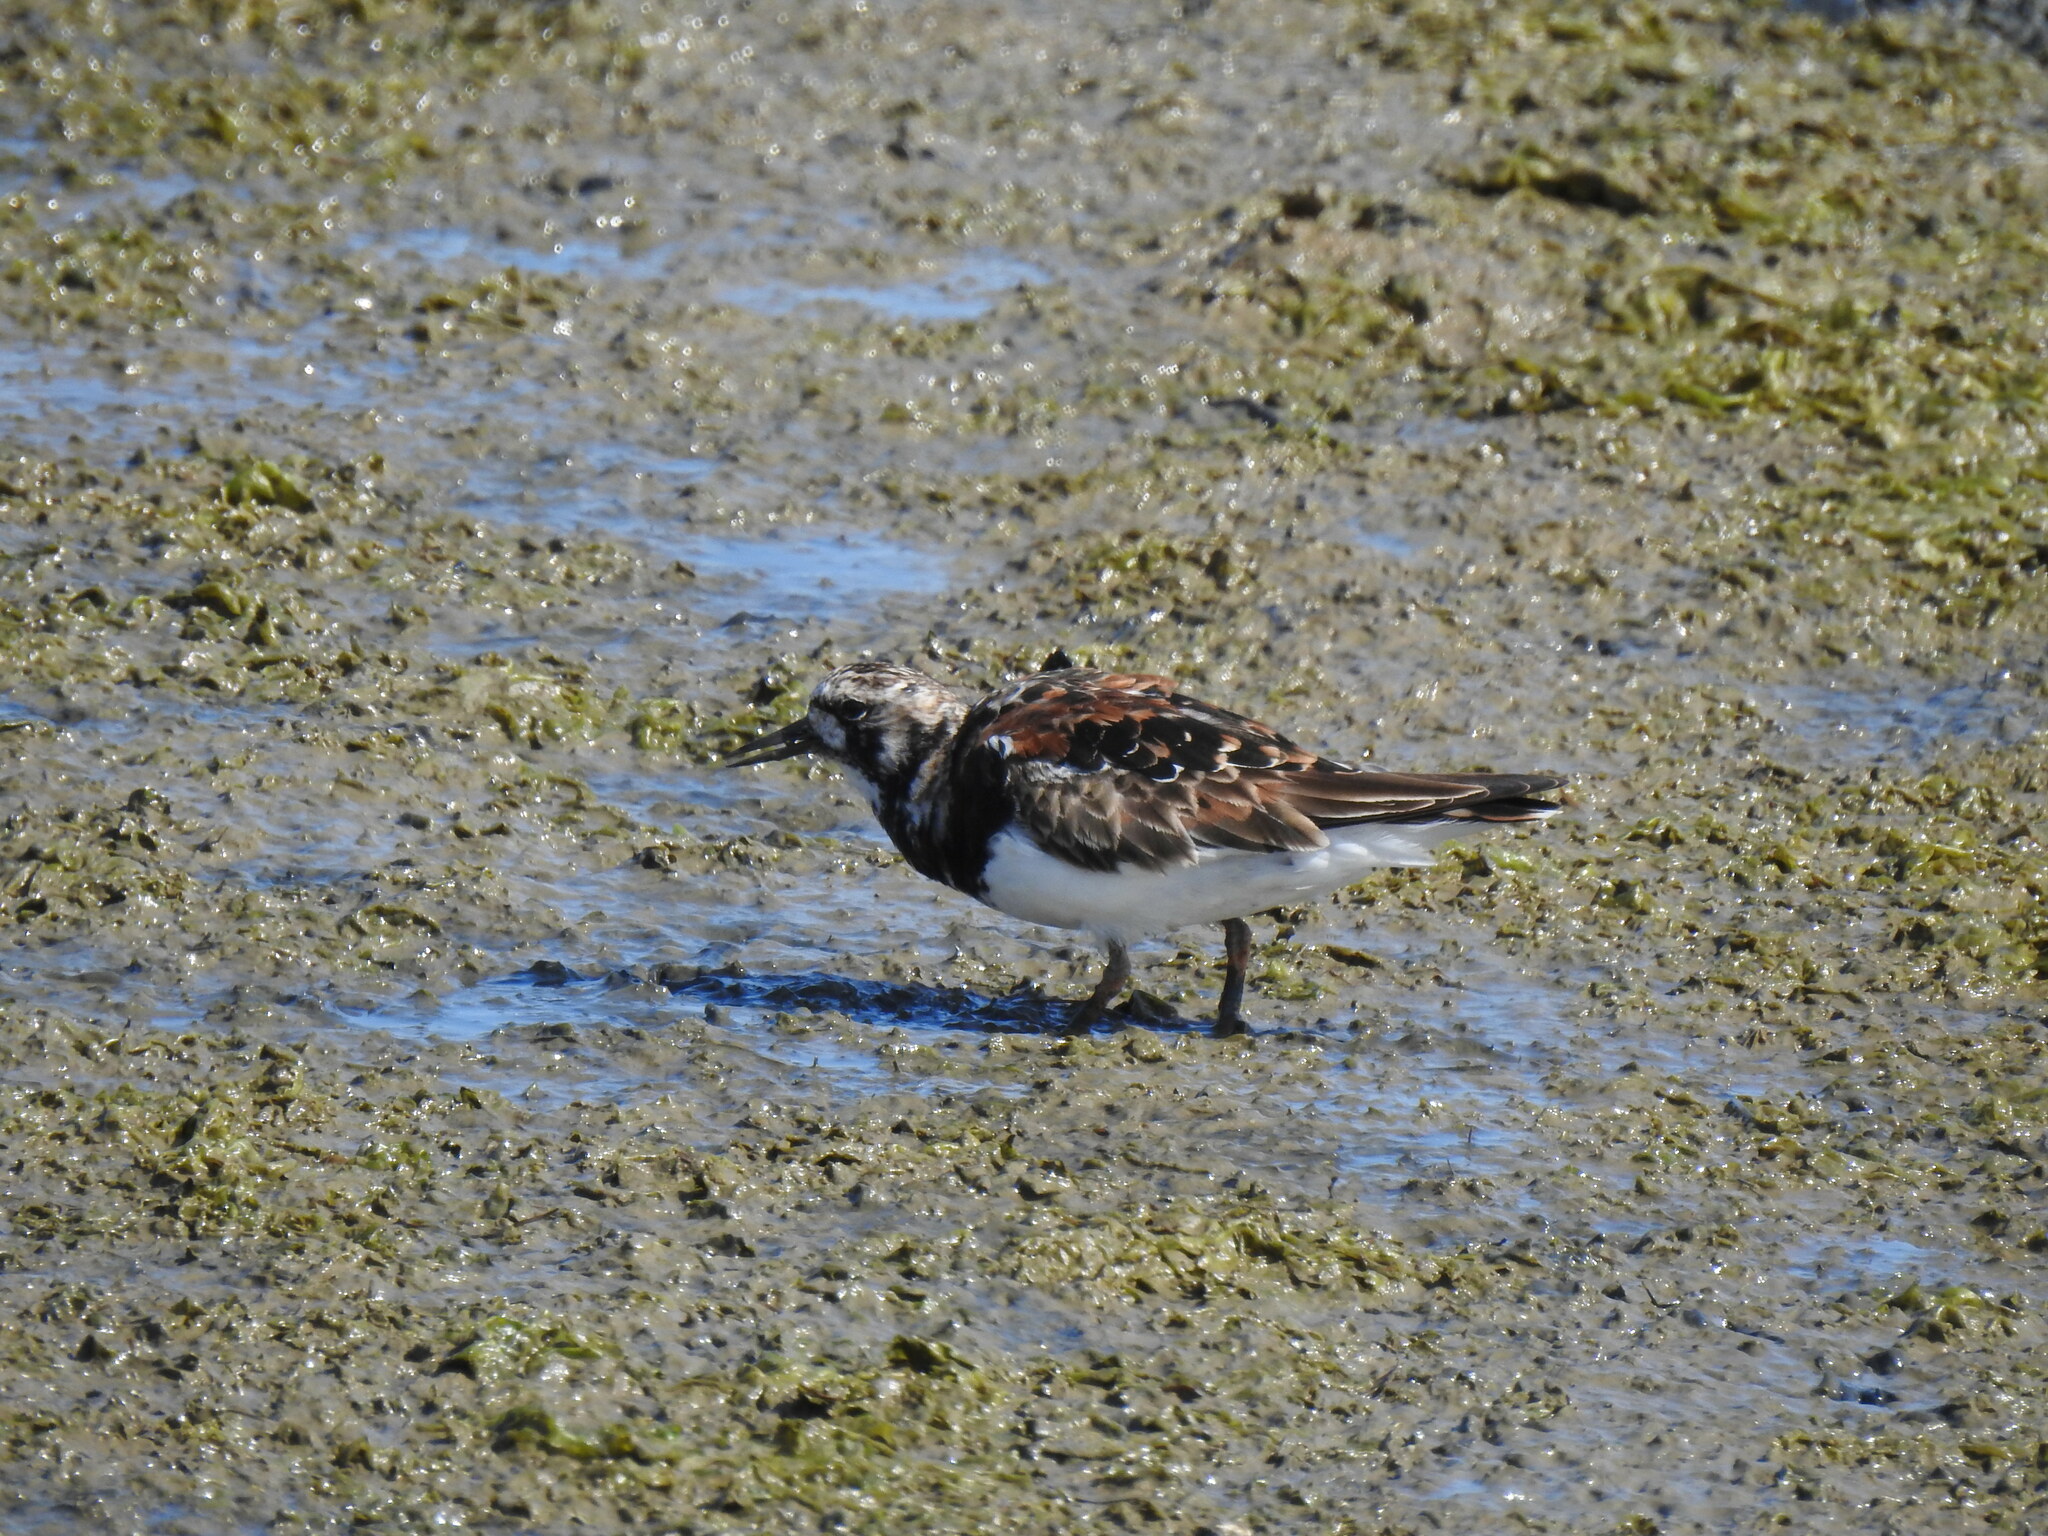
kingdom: Animalia
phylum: Chordata
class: Aves
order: Charadriiformes
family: Scolopacidae
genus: Arenaria
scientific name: Arenaria interpres
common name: Ruddy turnstone
